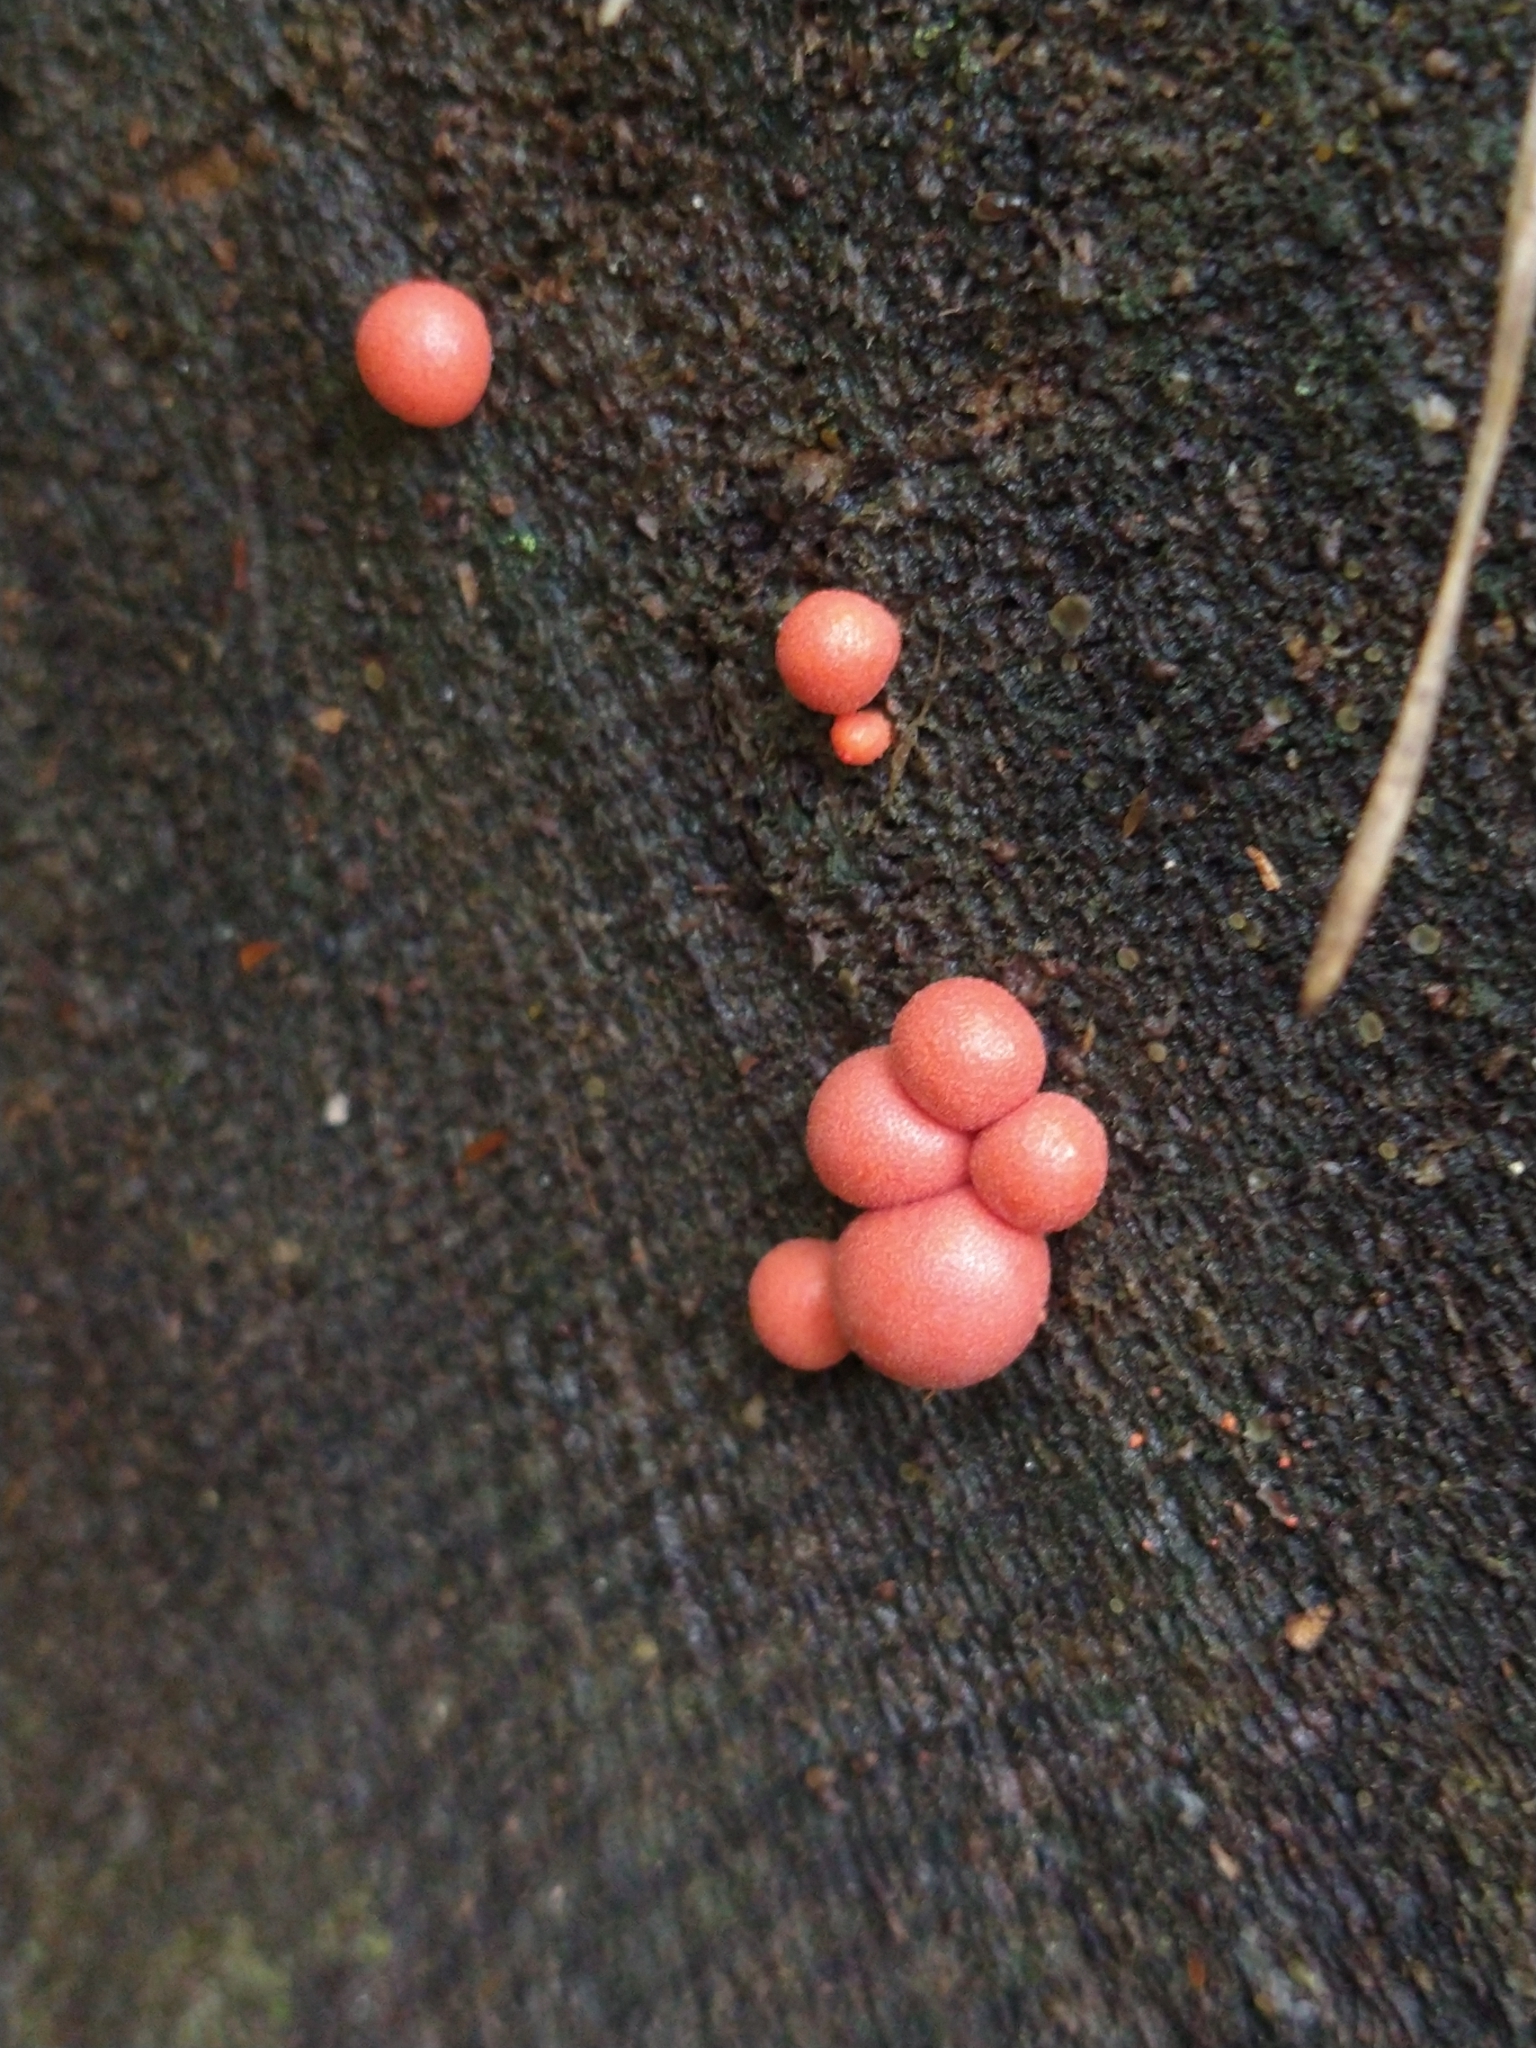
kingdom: Protozoa
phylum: Mycetozoa
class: Myxomycetes
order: Cribrariales
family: Tubiferaceae
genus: Lycogala
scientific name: Lycogala epidendrum
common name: Wolf's milk
